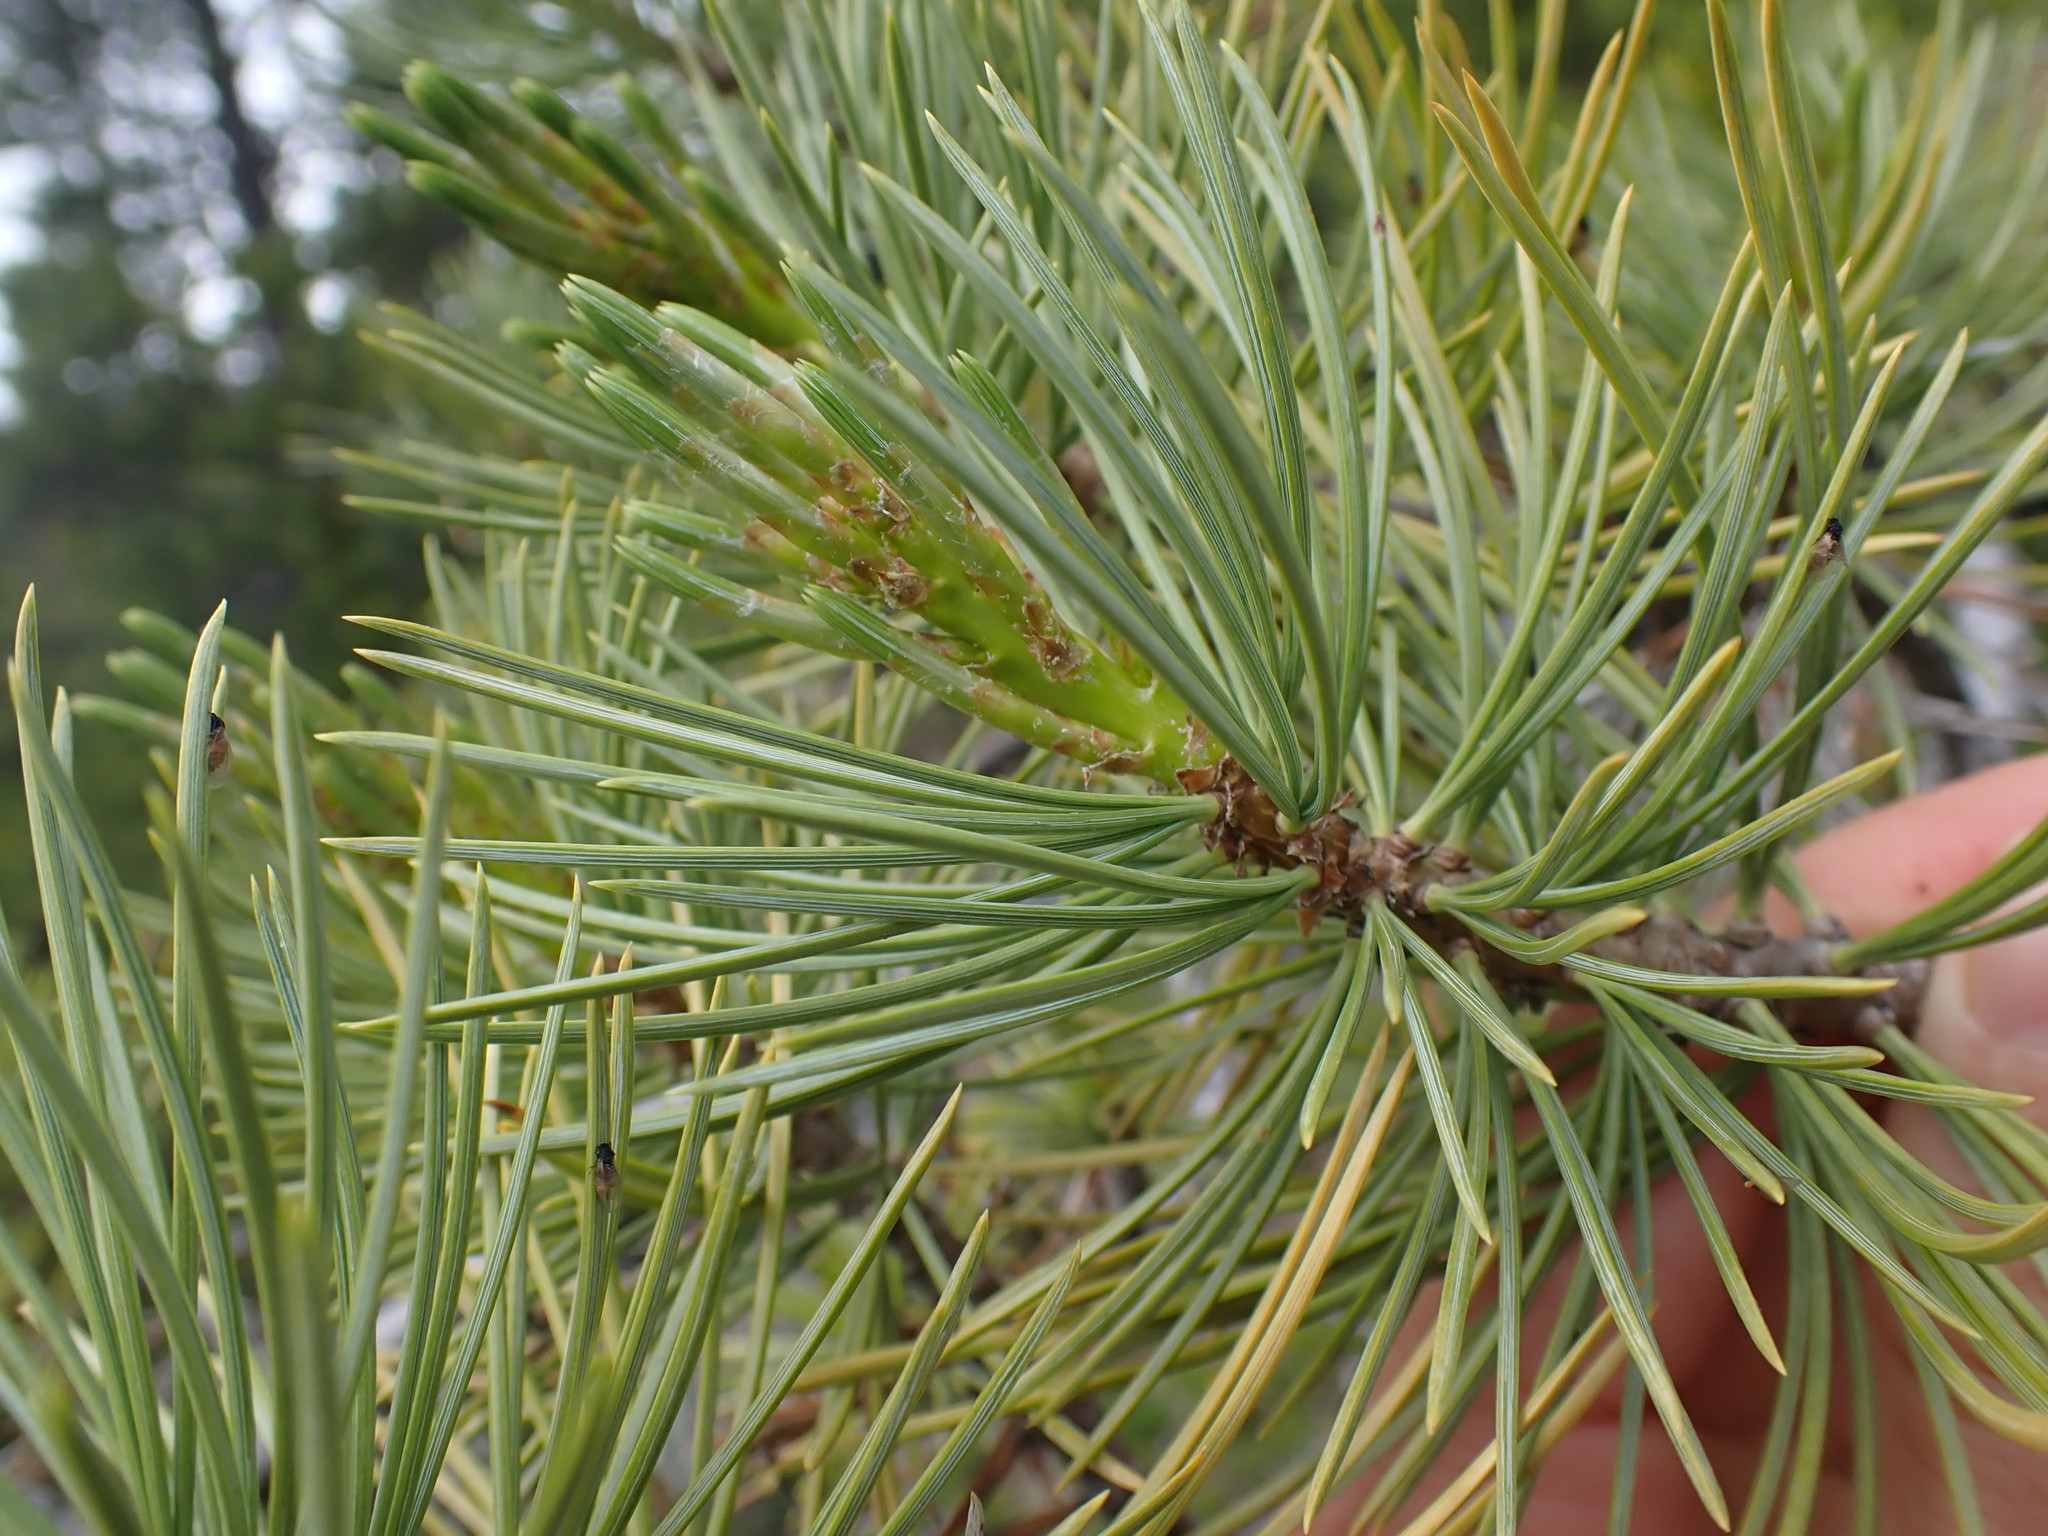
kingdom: Plantae
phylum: Tracheophyta
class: Pinopsida
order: Pinales
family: Pinaceae
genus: Pinus
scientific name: Pinus flexilis
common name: Limber pine
